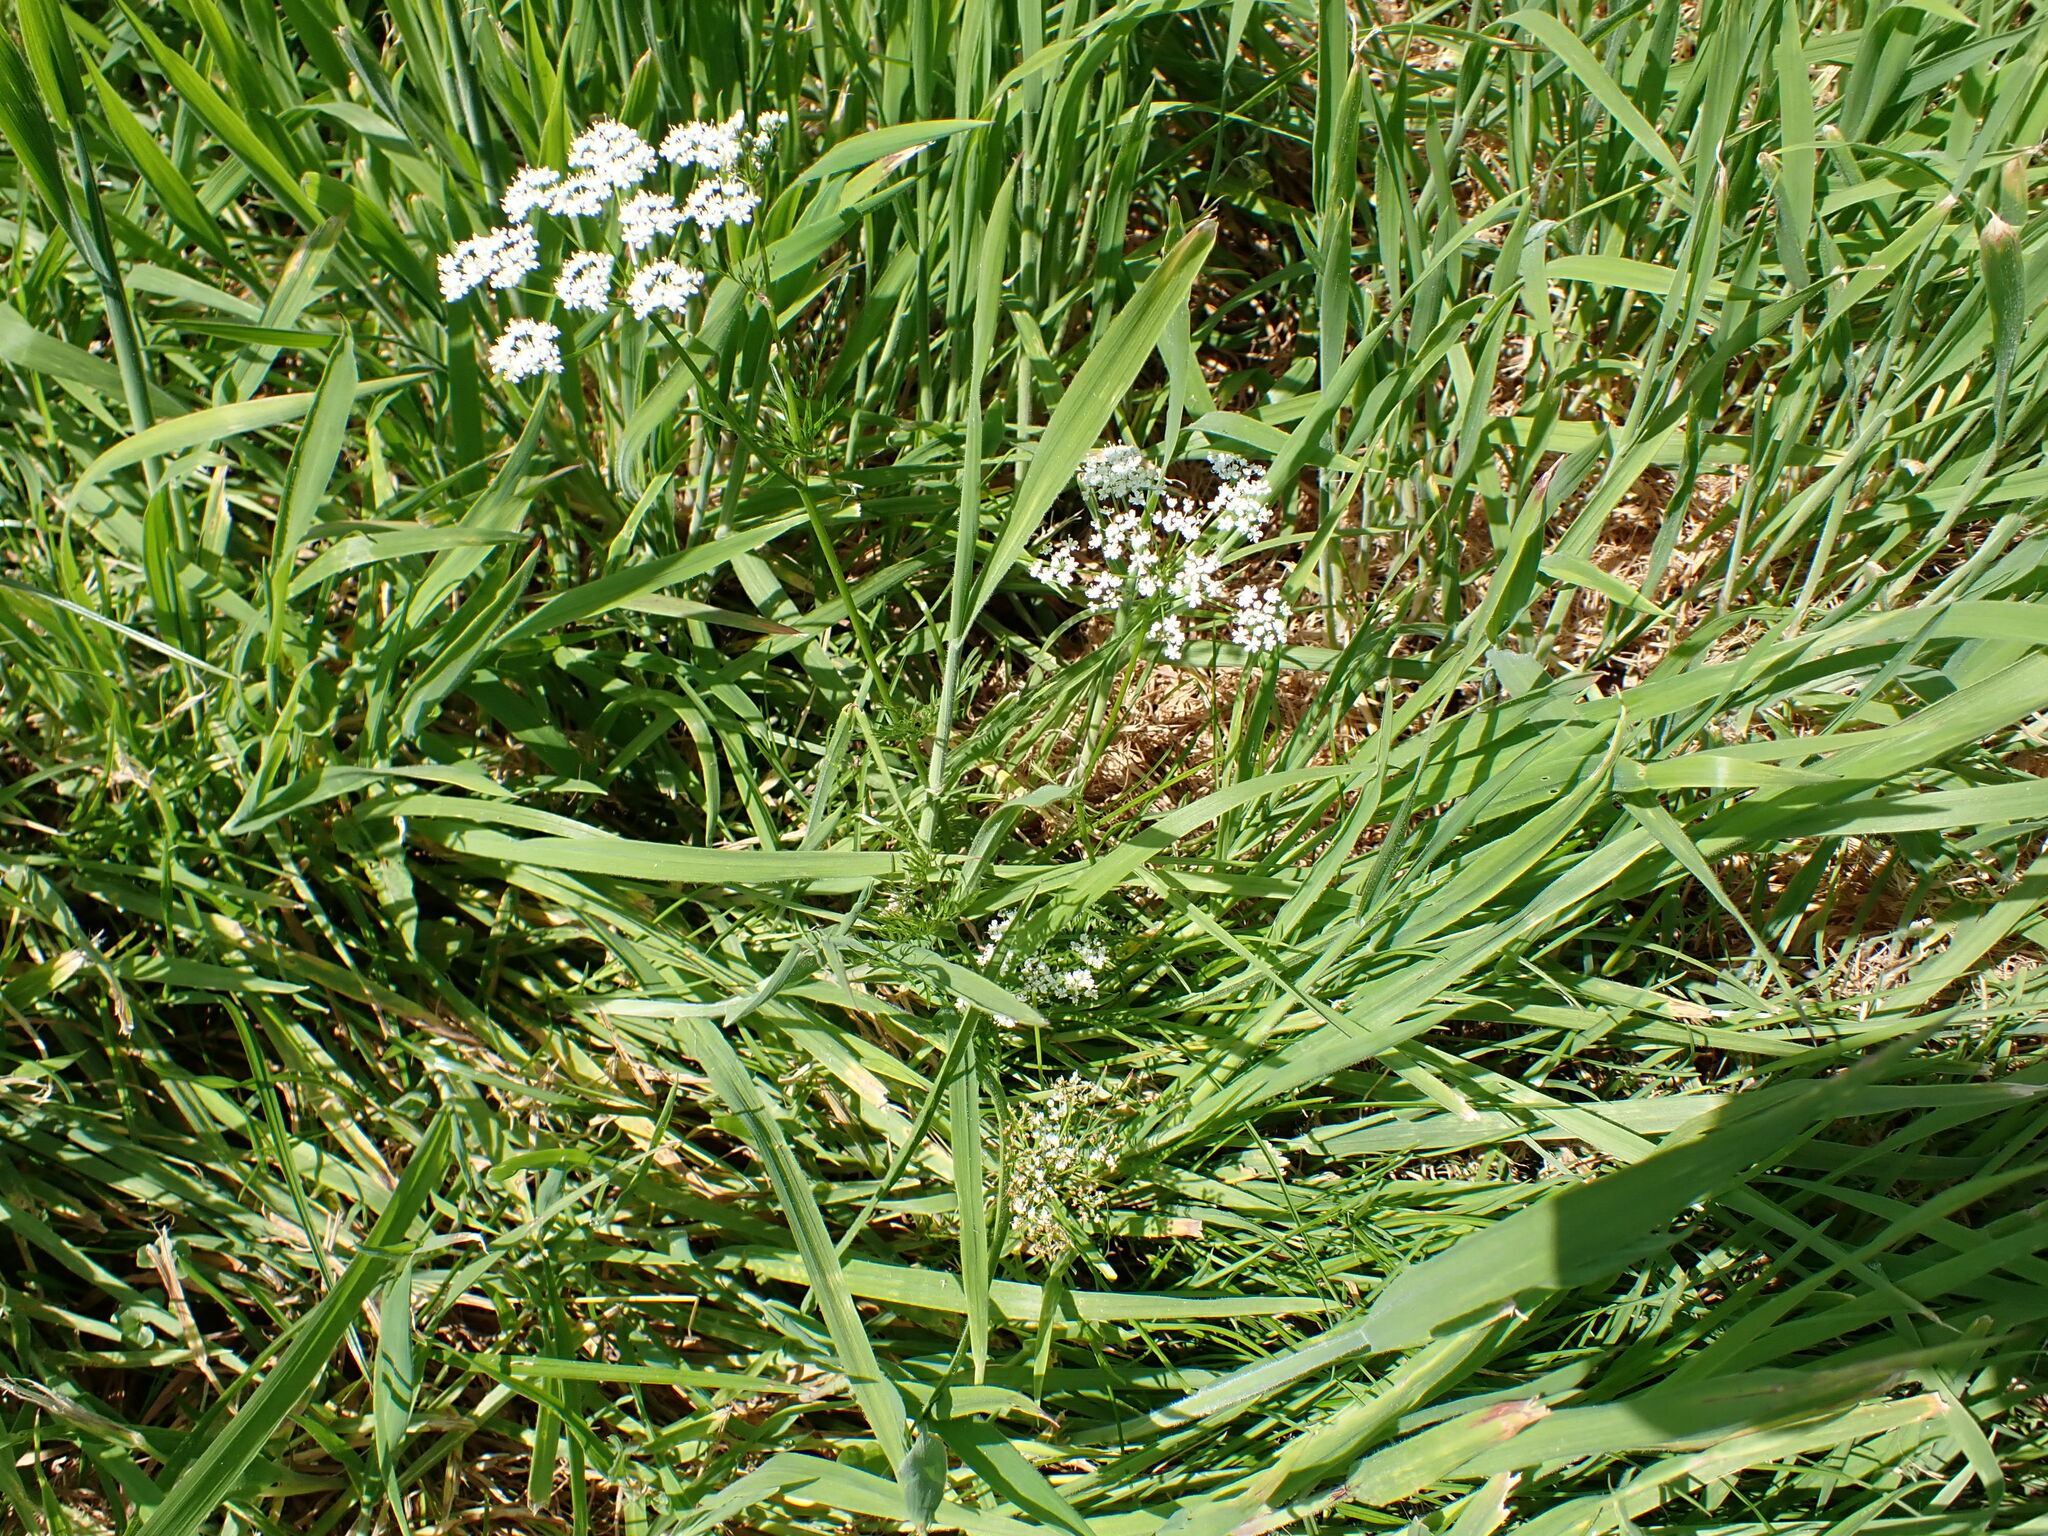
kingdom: Plantae
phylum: Tracheophyta
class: Magnoliopsida
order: Apiales
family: Apiaceae
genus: Conopodium
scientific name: Conopodium majus
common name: Pignut
